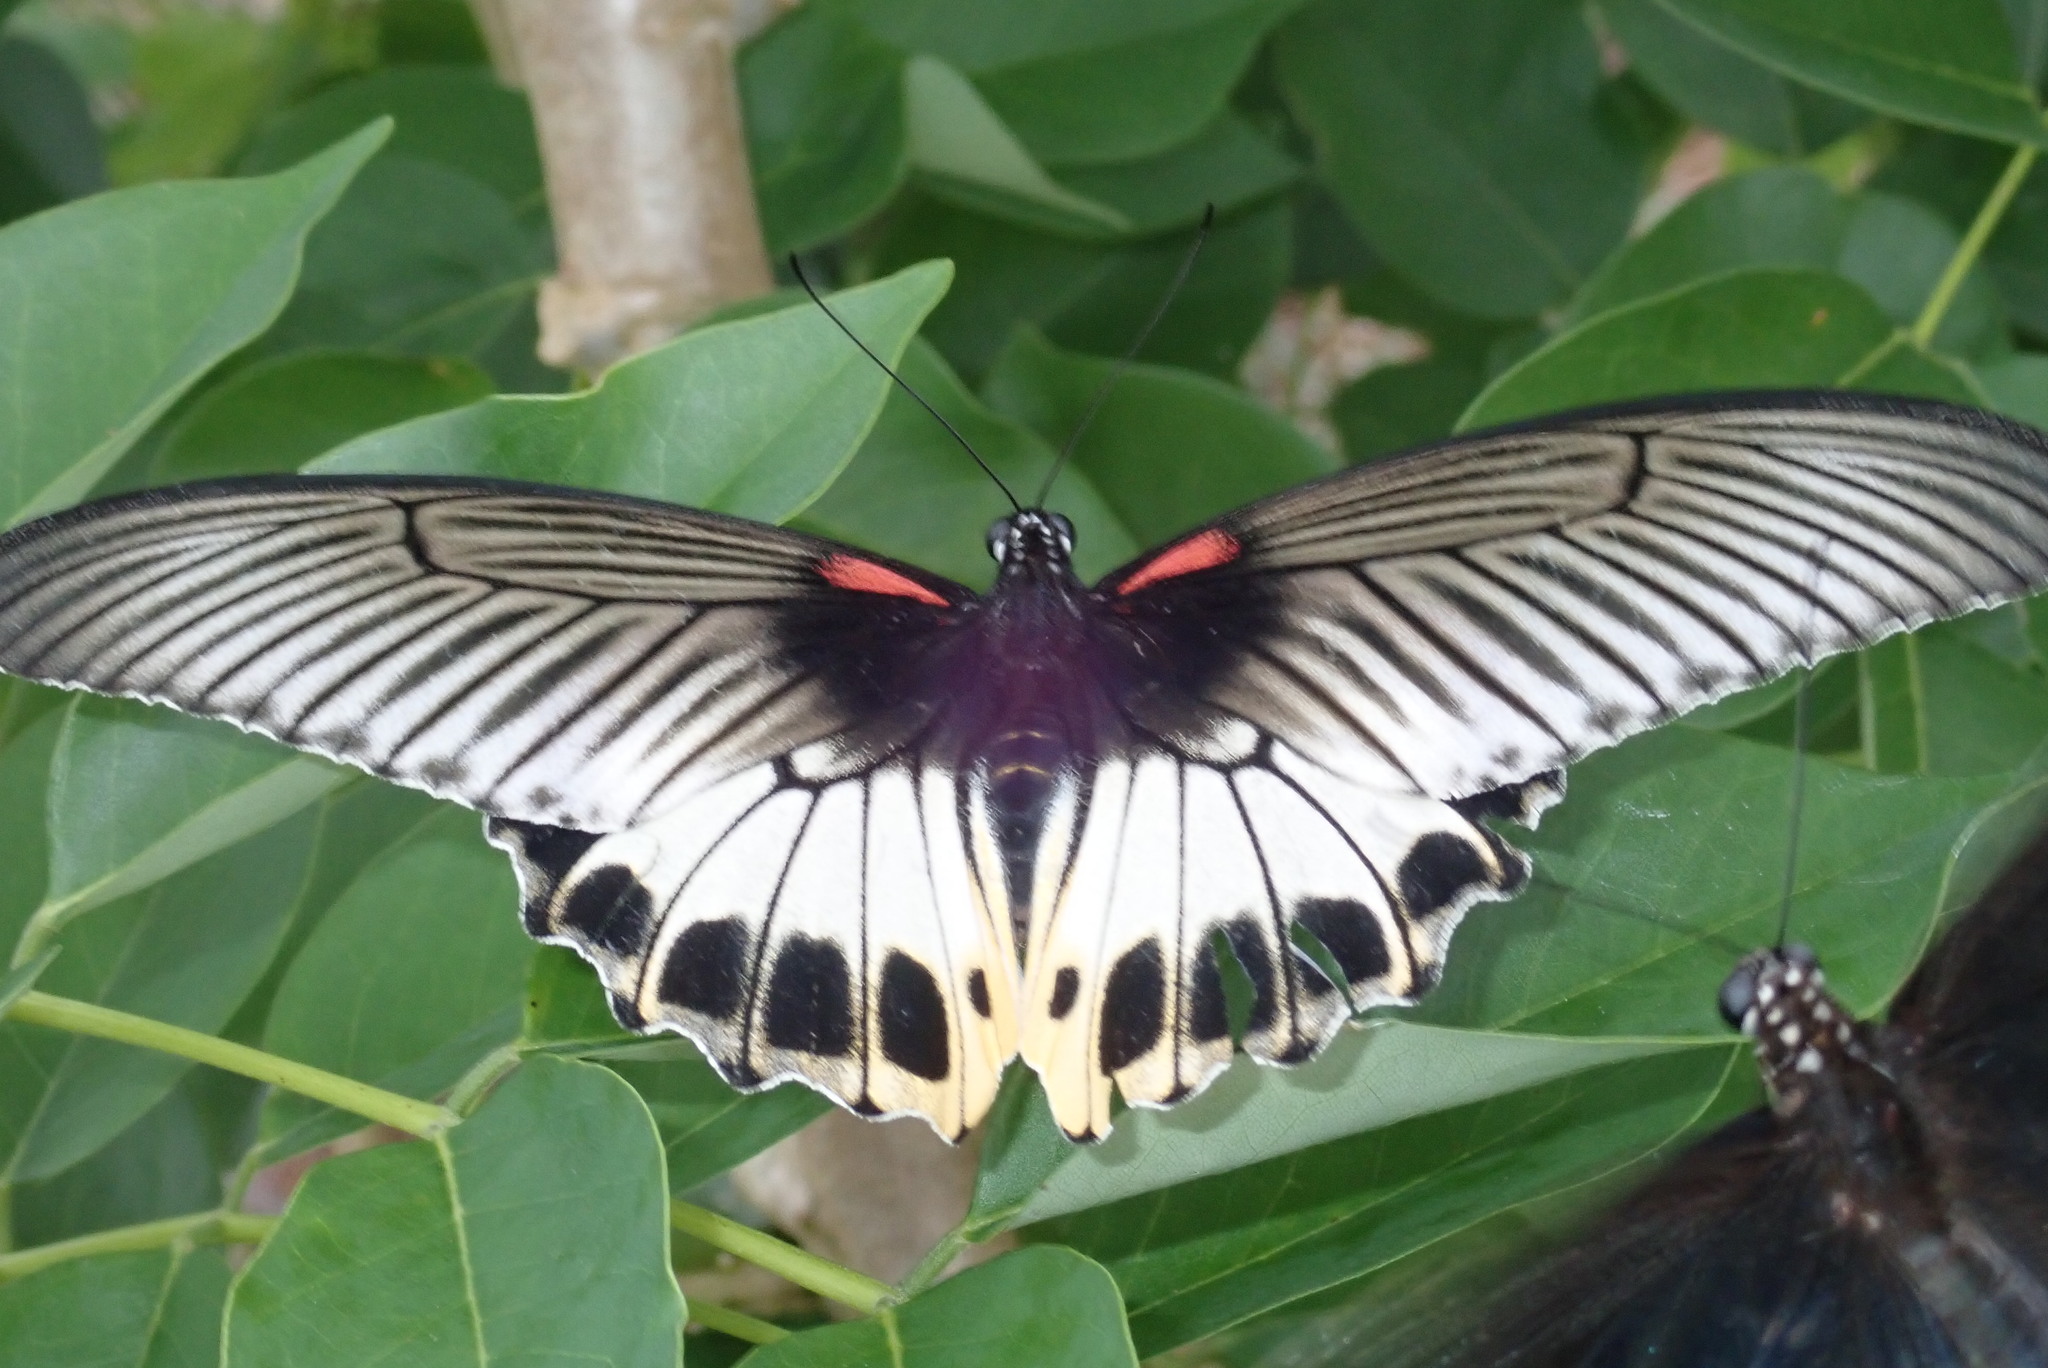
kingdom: Animalia
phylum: Arthropoda
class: Insecta
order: Lepidoptera
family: Papilionidae
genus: Papilio
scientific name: Papilio memnon
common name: Great mormon
